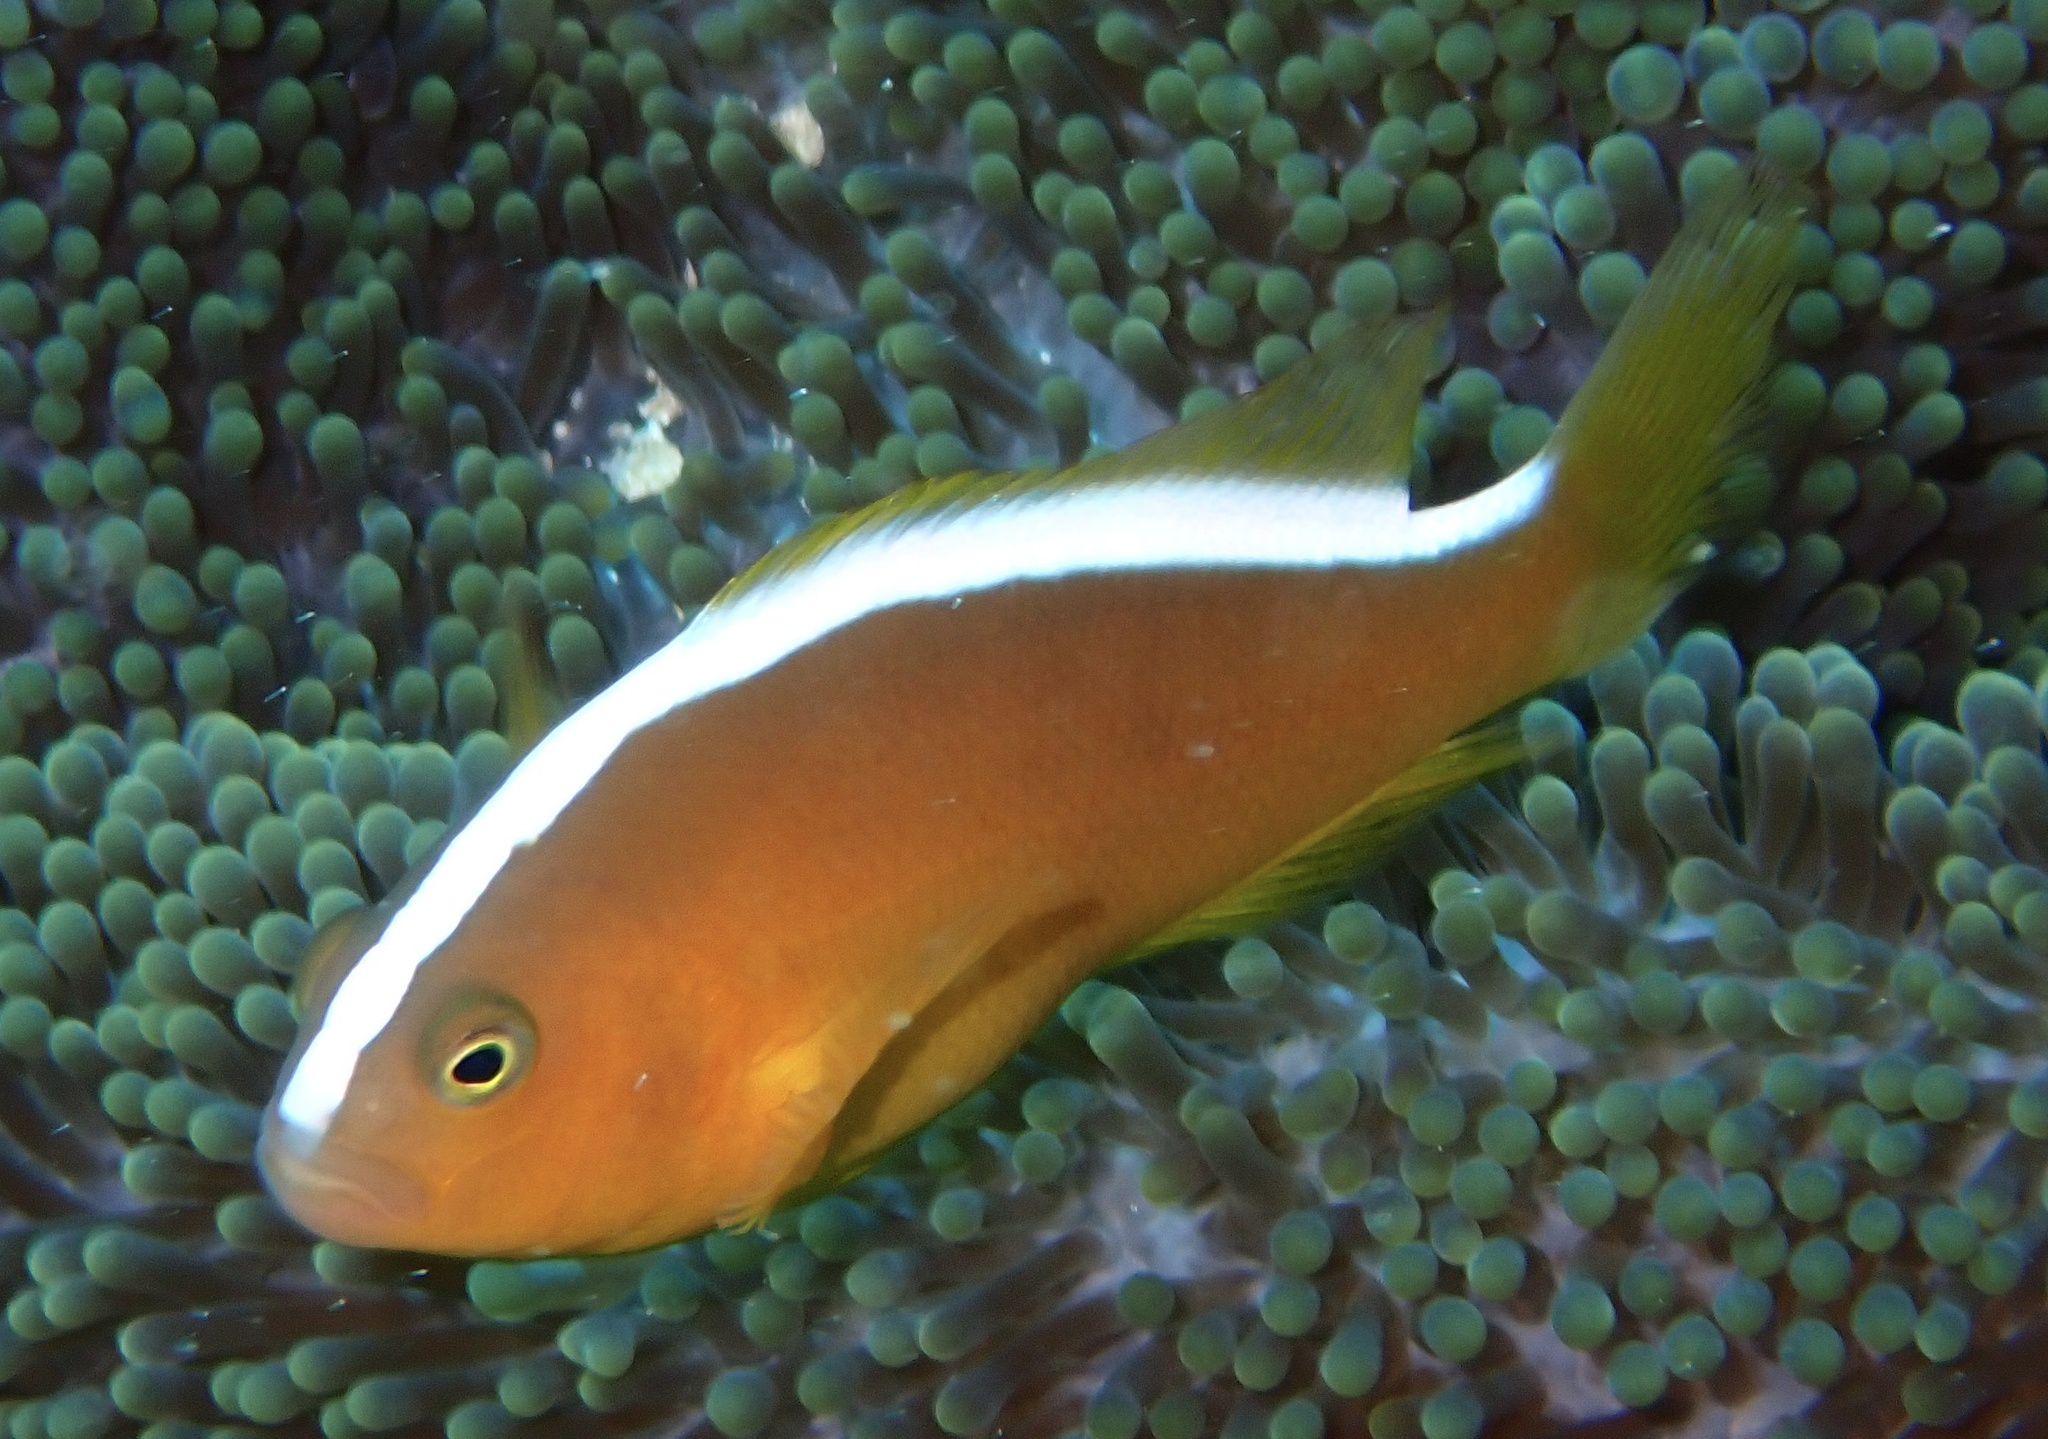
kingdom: Animalia
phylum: Chordata
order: Perciformes
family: Pomacentridae
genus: Amphiprion
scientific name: Amphiprion sandaracinos
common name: Orange anemonefish
